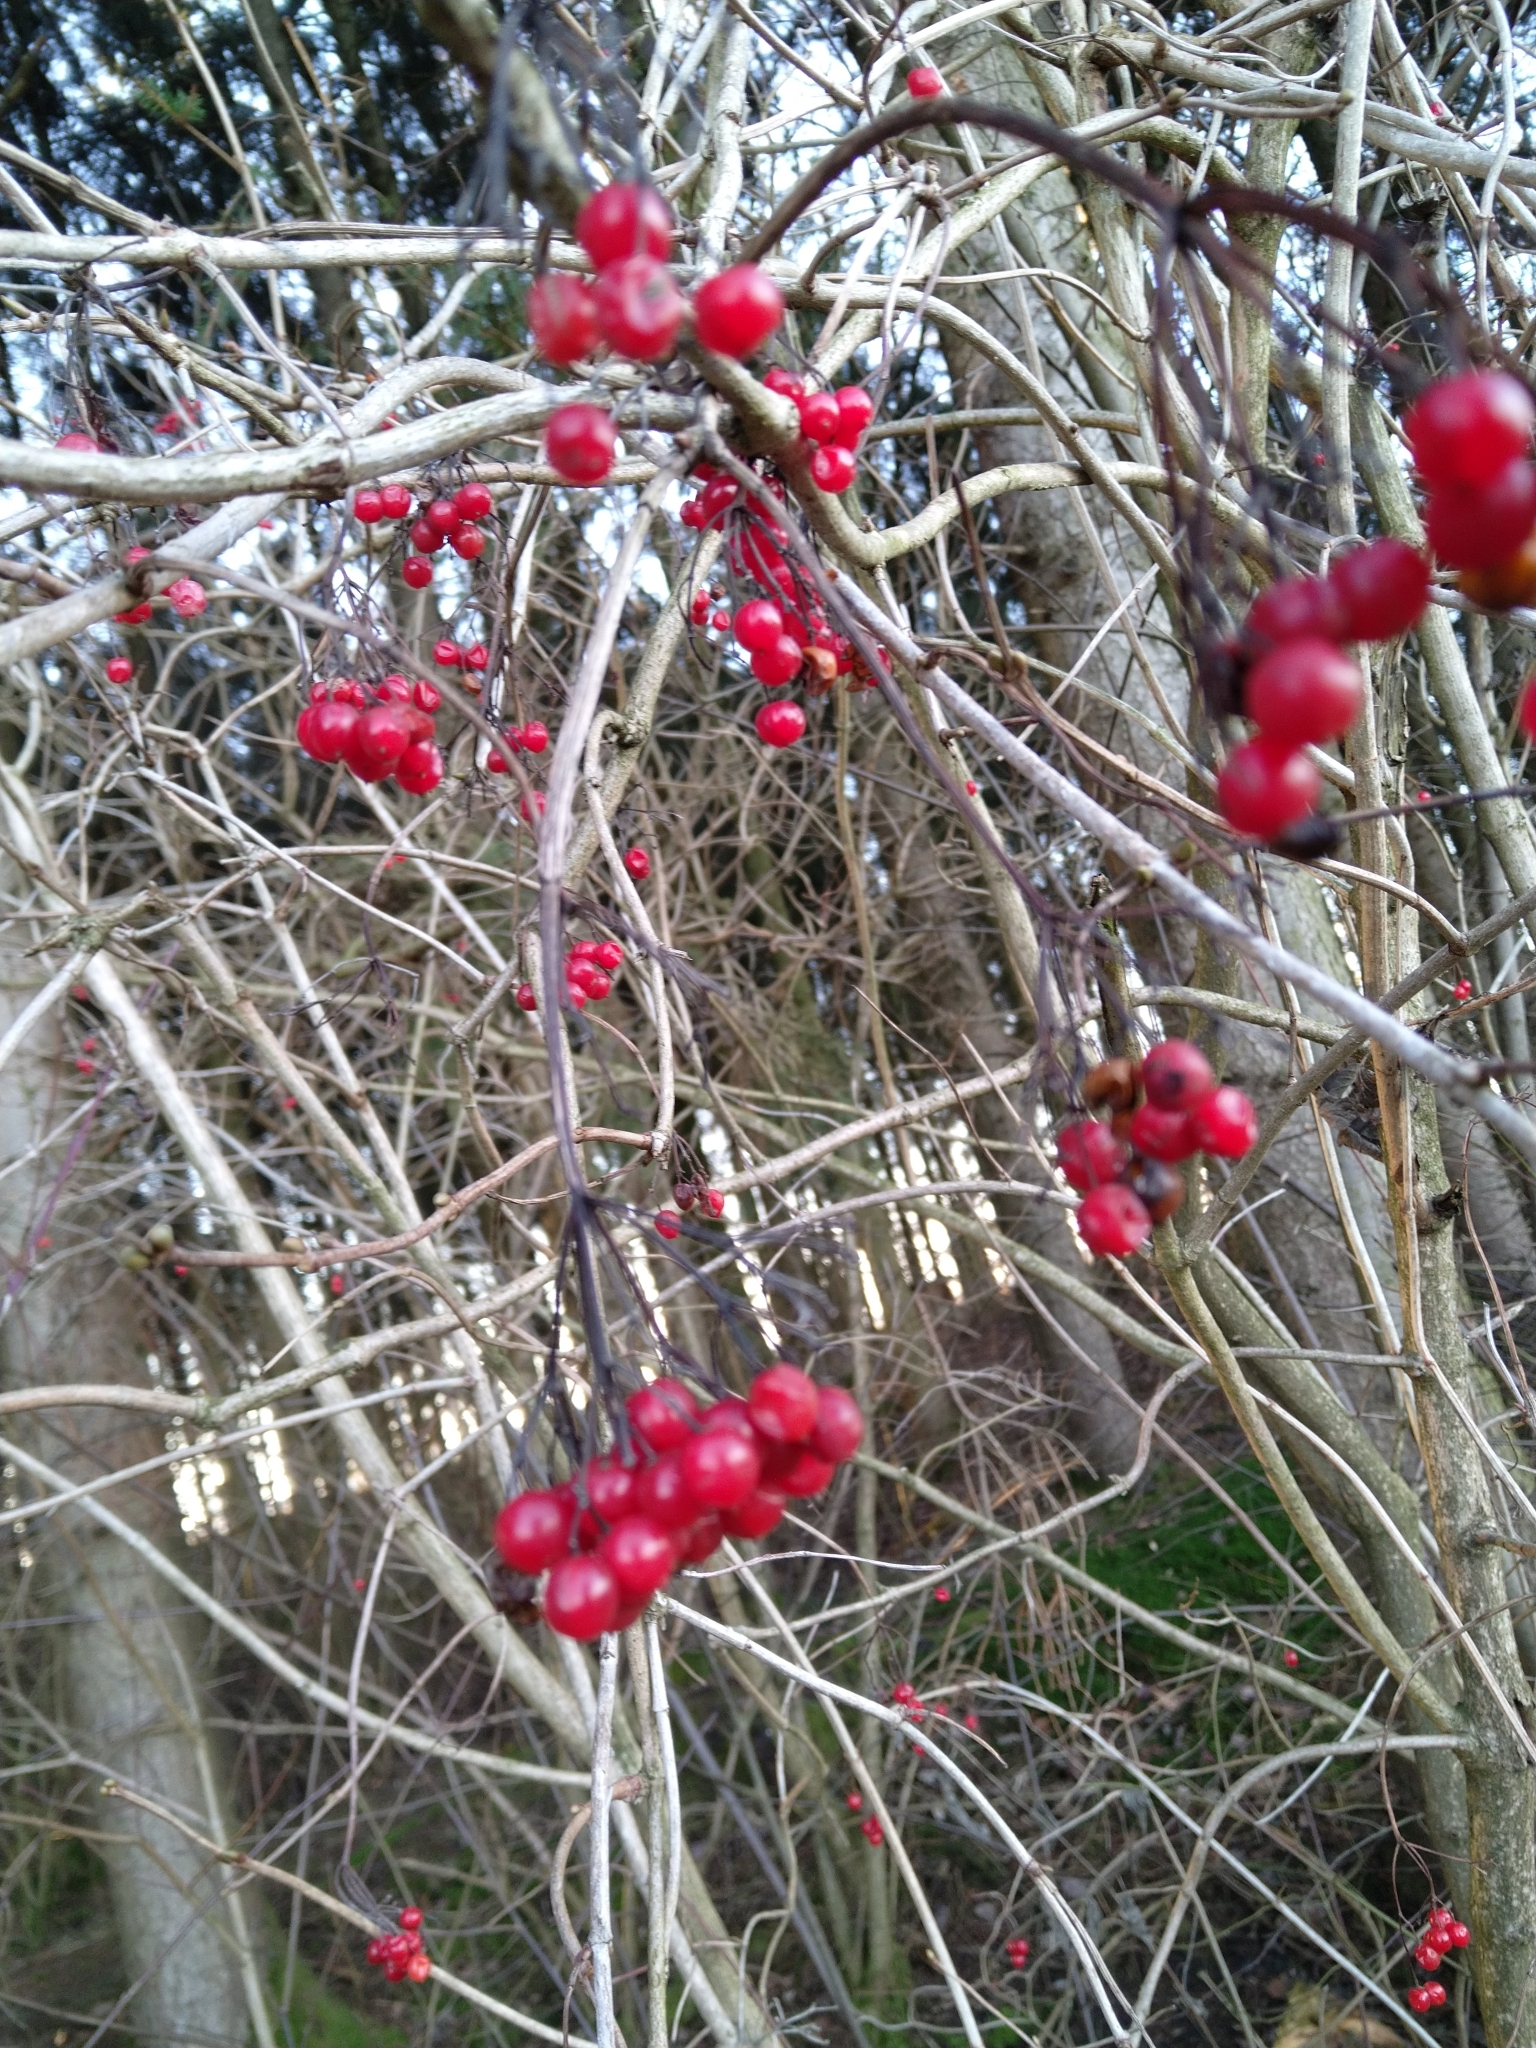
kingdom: Plantae
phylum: Tracheophyta
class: Magnoliopsida
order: Dipsacales
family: Viburnaceae
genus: Viburnum
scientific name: Viburnum opulus
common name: Guelder-rose
